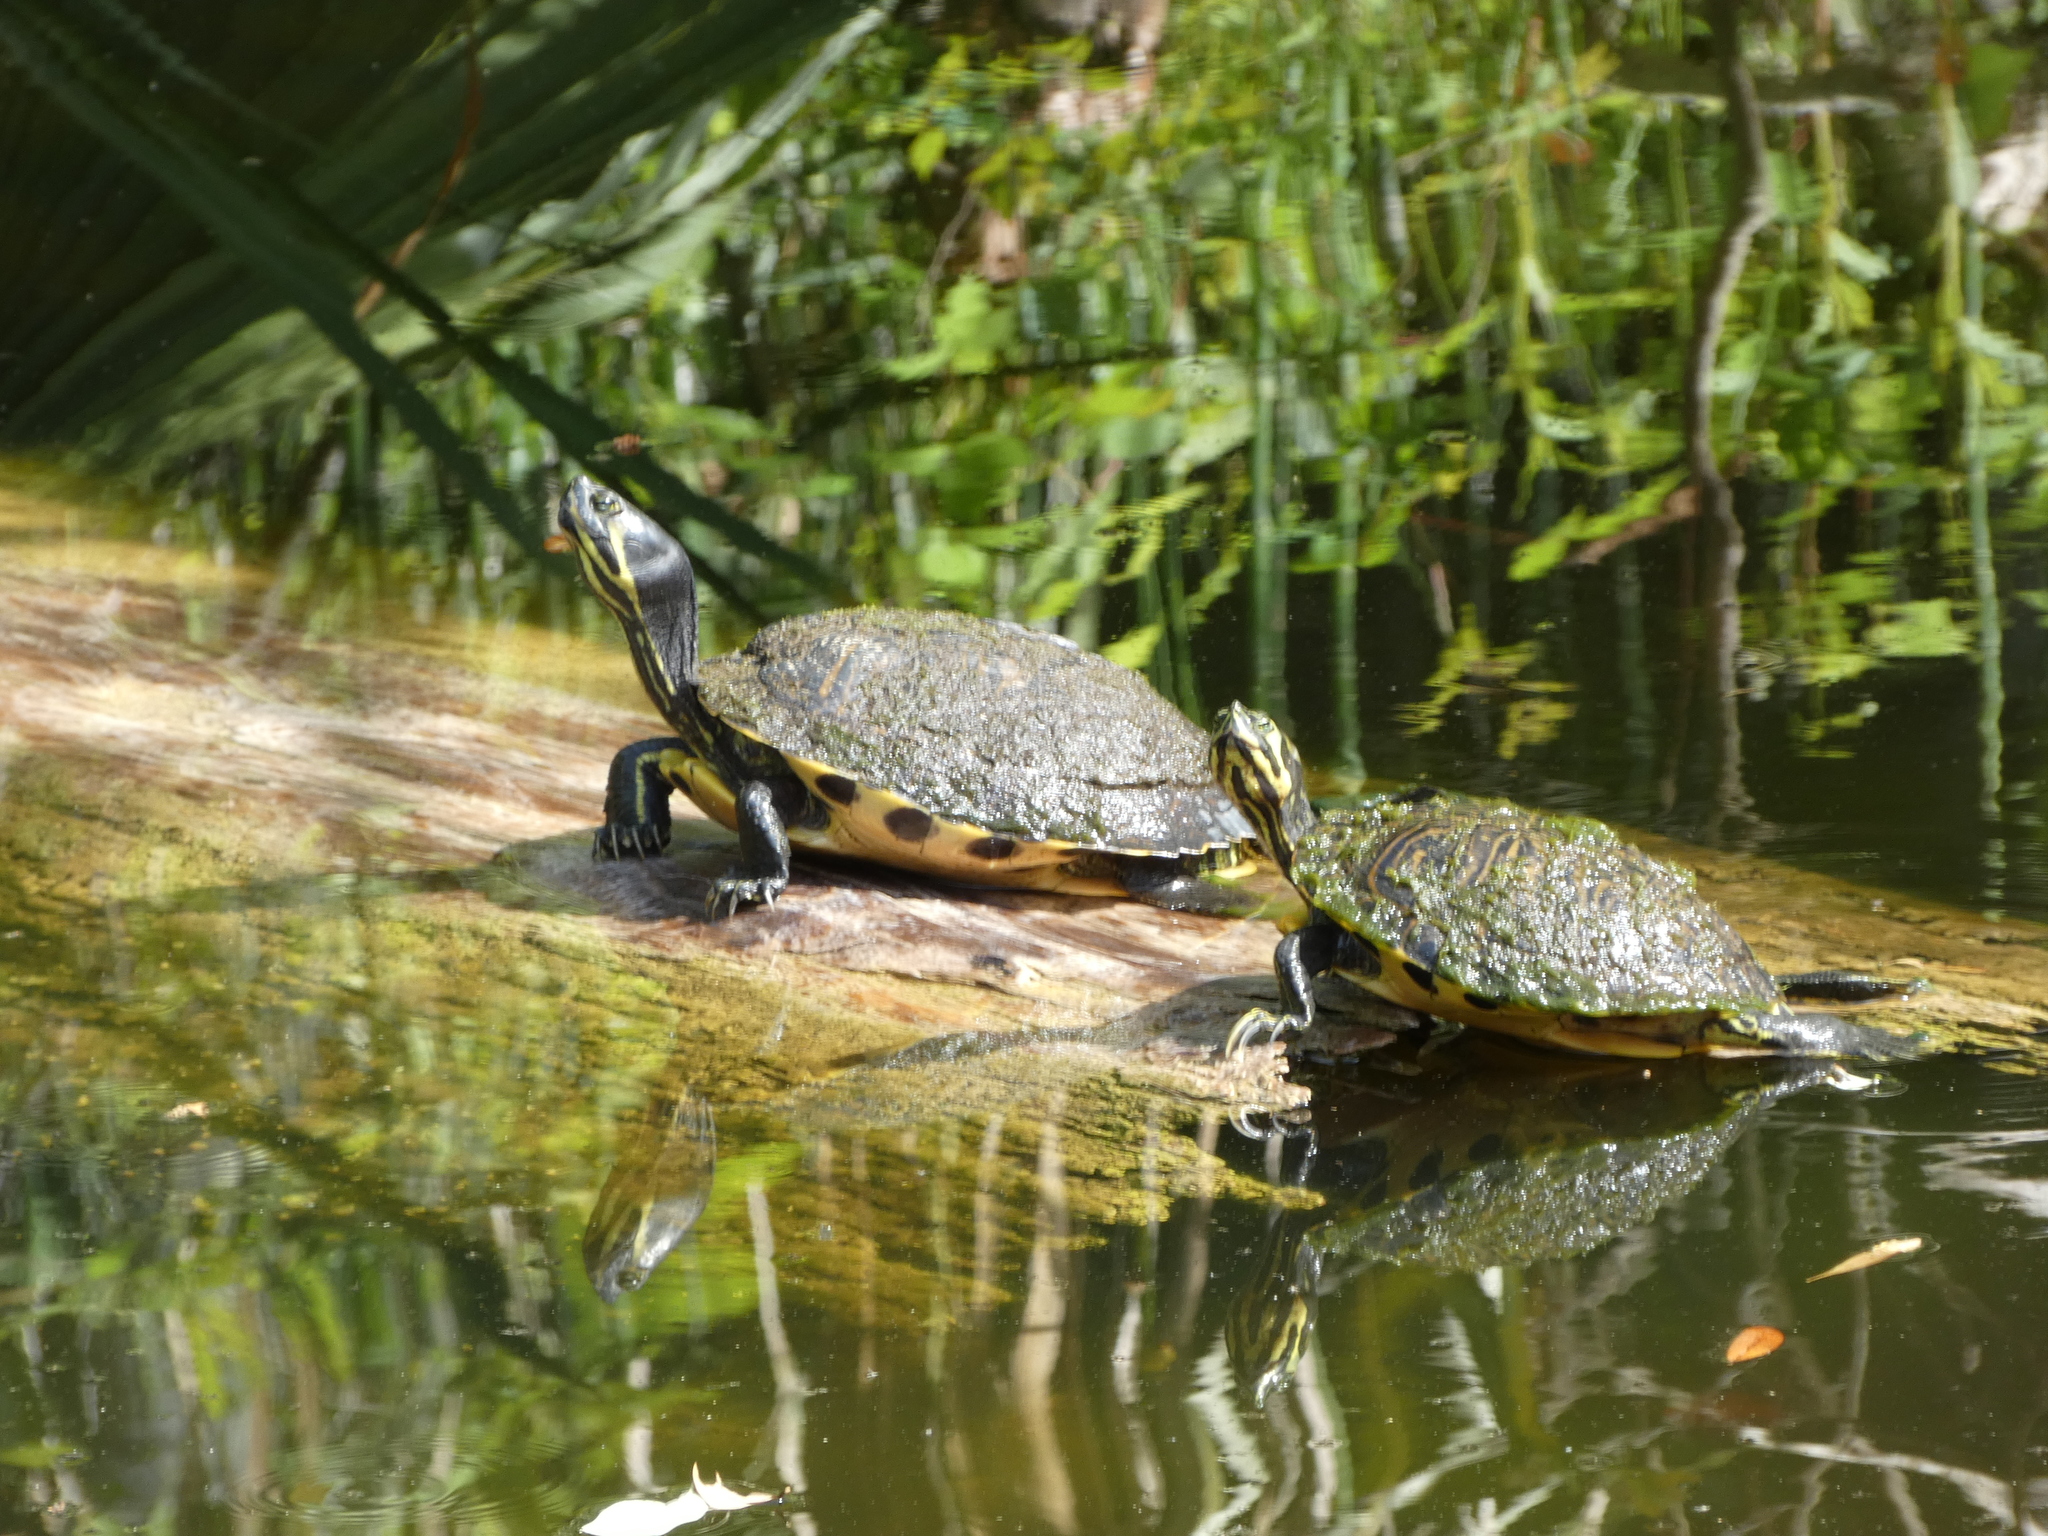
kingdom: Animalia
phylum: Chordata
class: Testudines
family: Emydidae
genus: Trachemys
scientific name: Trachemys scripta
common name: Slider
